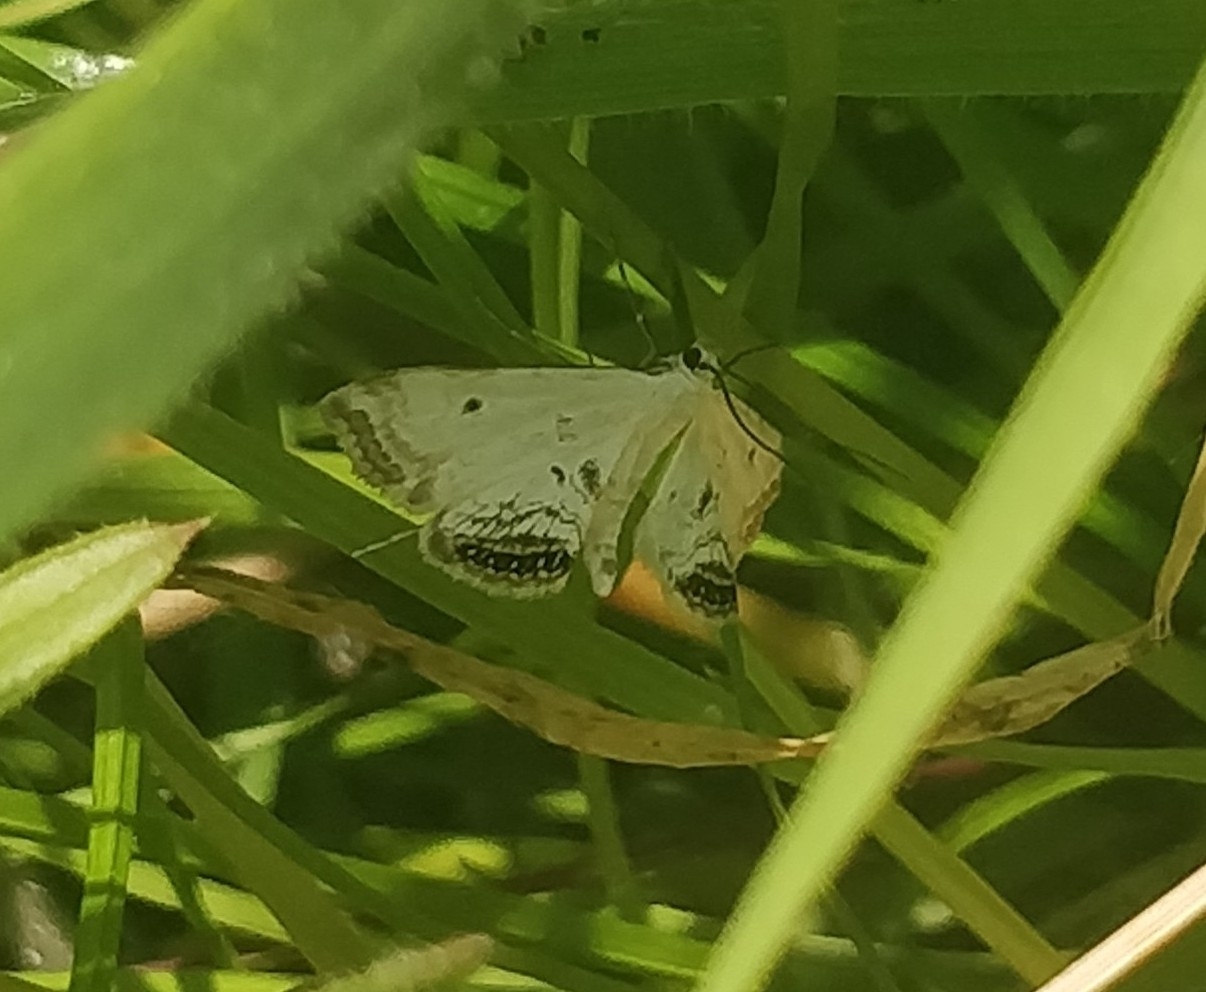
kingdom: Animalia
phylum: Arthropoda
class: Insecta
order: Lepidoptera
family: Crambidae
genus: Cataclysta
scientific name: Cataclysta lemnata
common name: Small china-mark
